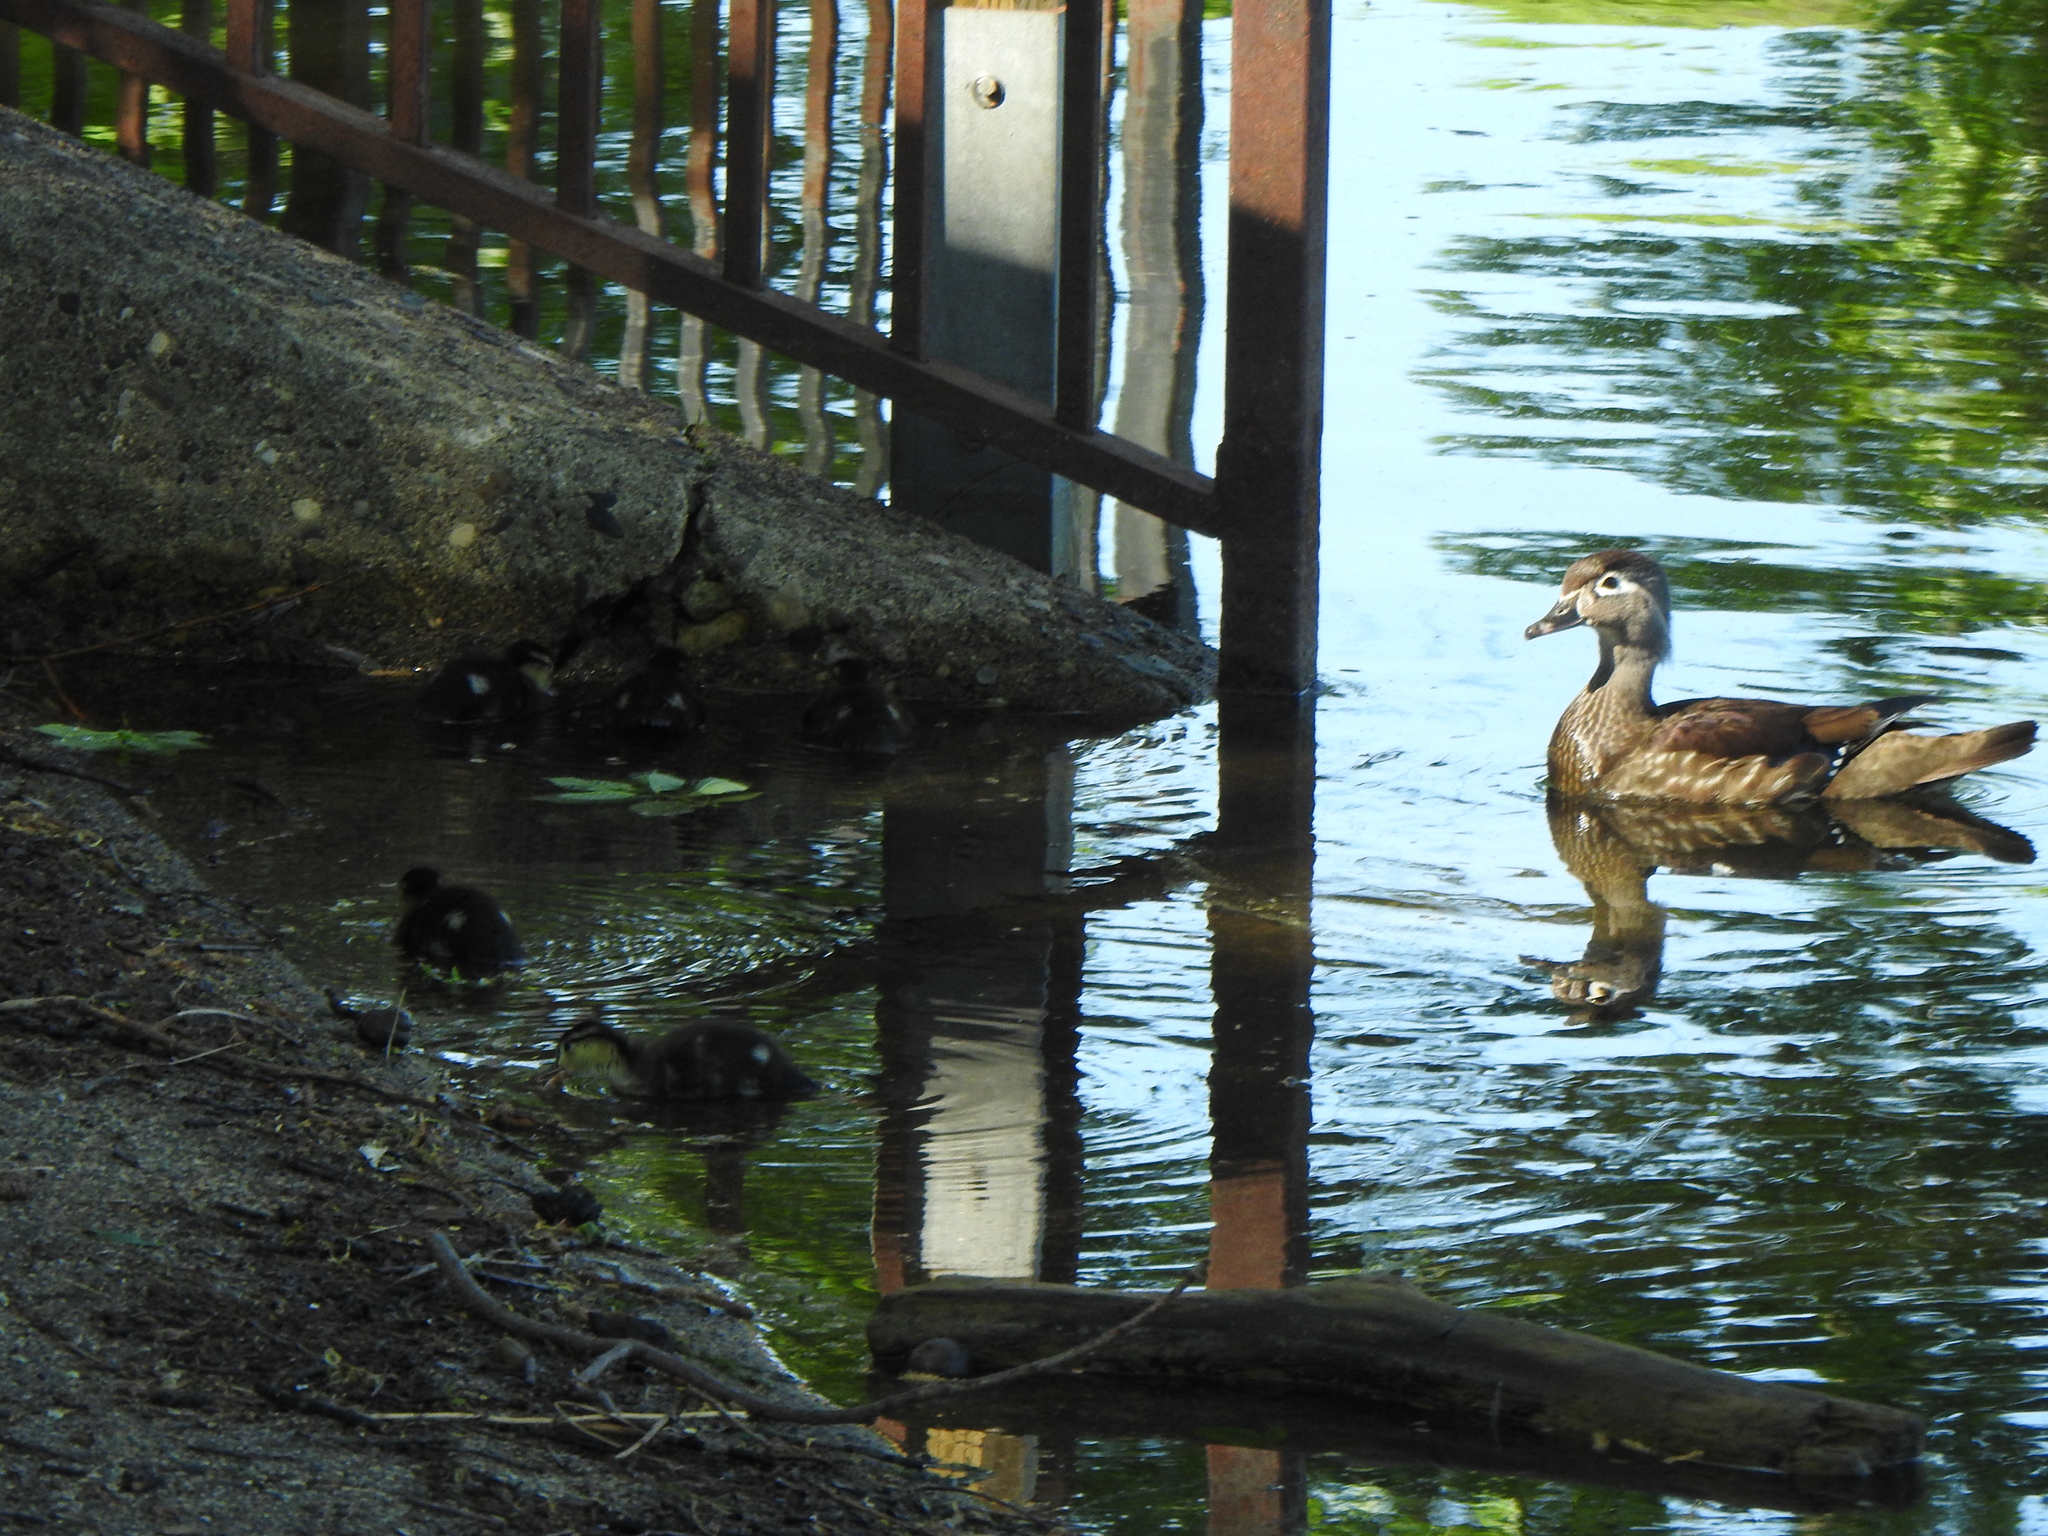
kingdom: Animalia
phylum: Chordata
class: Aves
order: Anseriformes
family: Anatidae
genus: Aix
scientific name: Aix sponsa
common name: Wood duck
